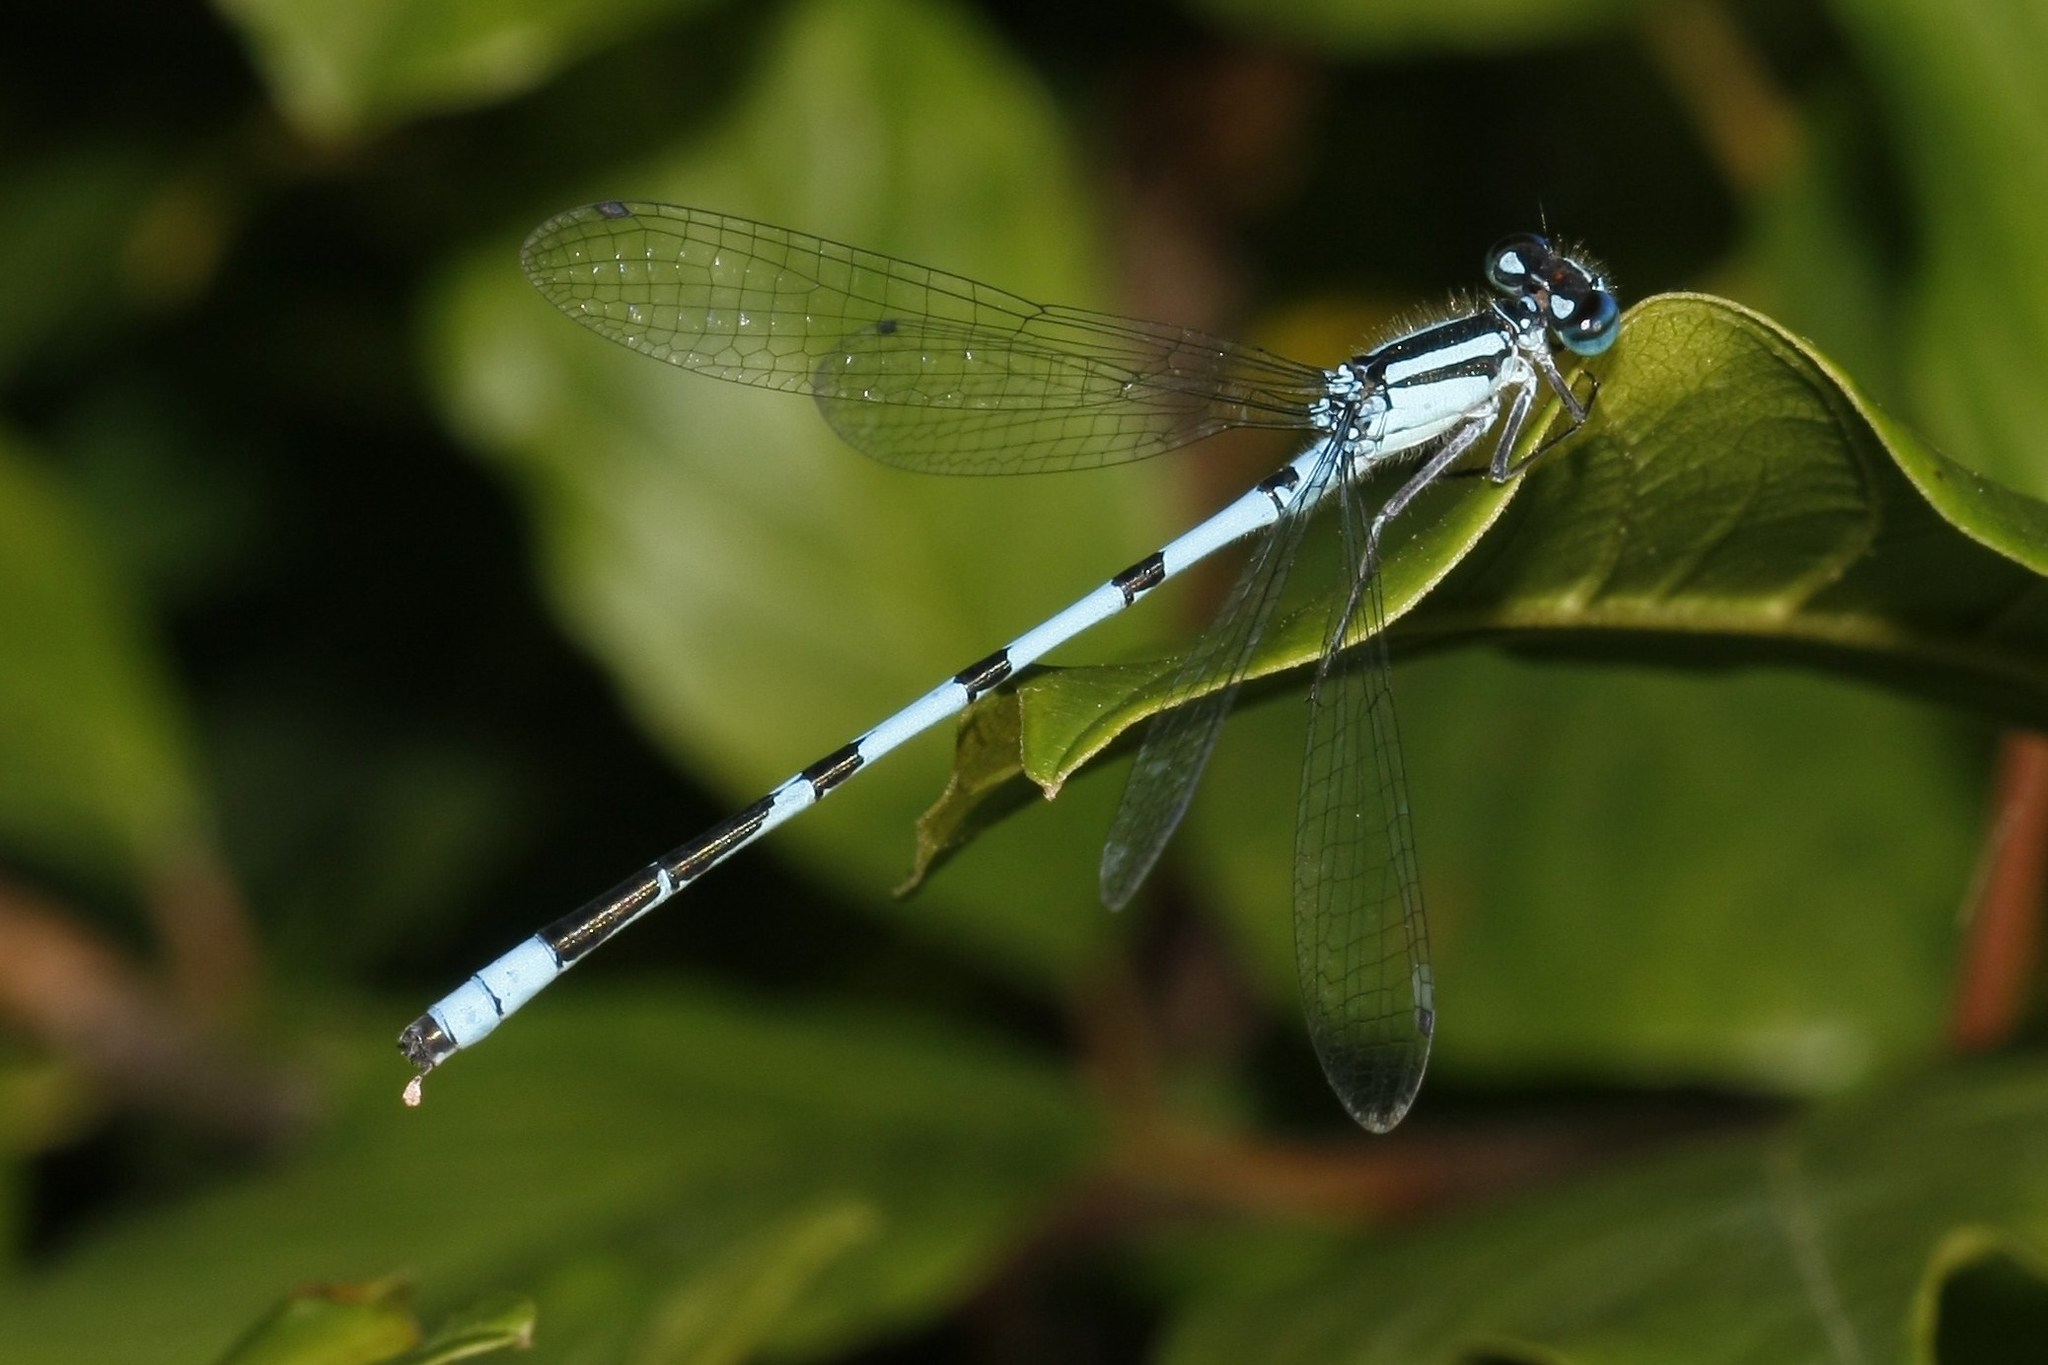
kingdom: Animalia
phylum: Arthropoda
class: Insecta
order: Odonata
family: Coenagrionidae
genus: Enallagma
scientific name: Enallagma ebrium
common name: Marsh bluet
